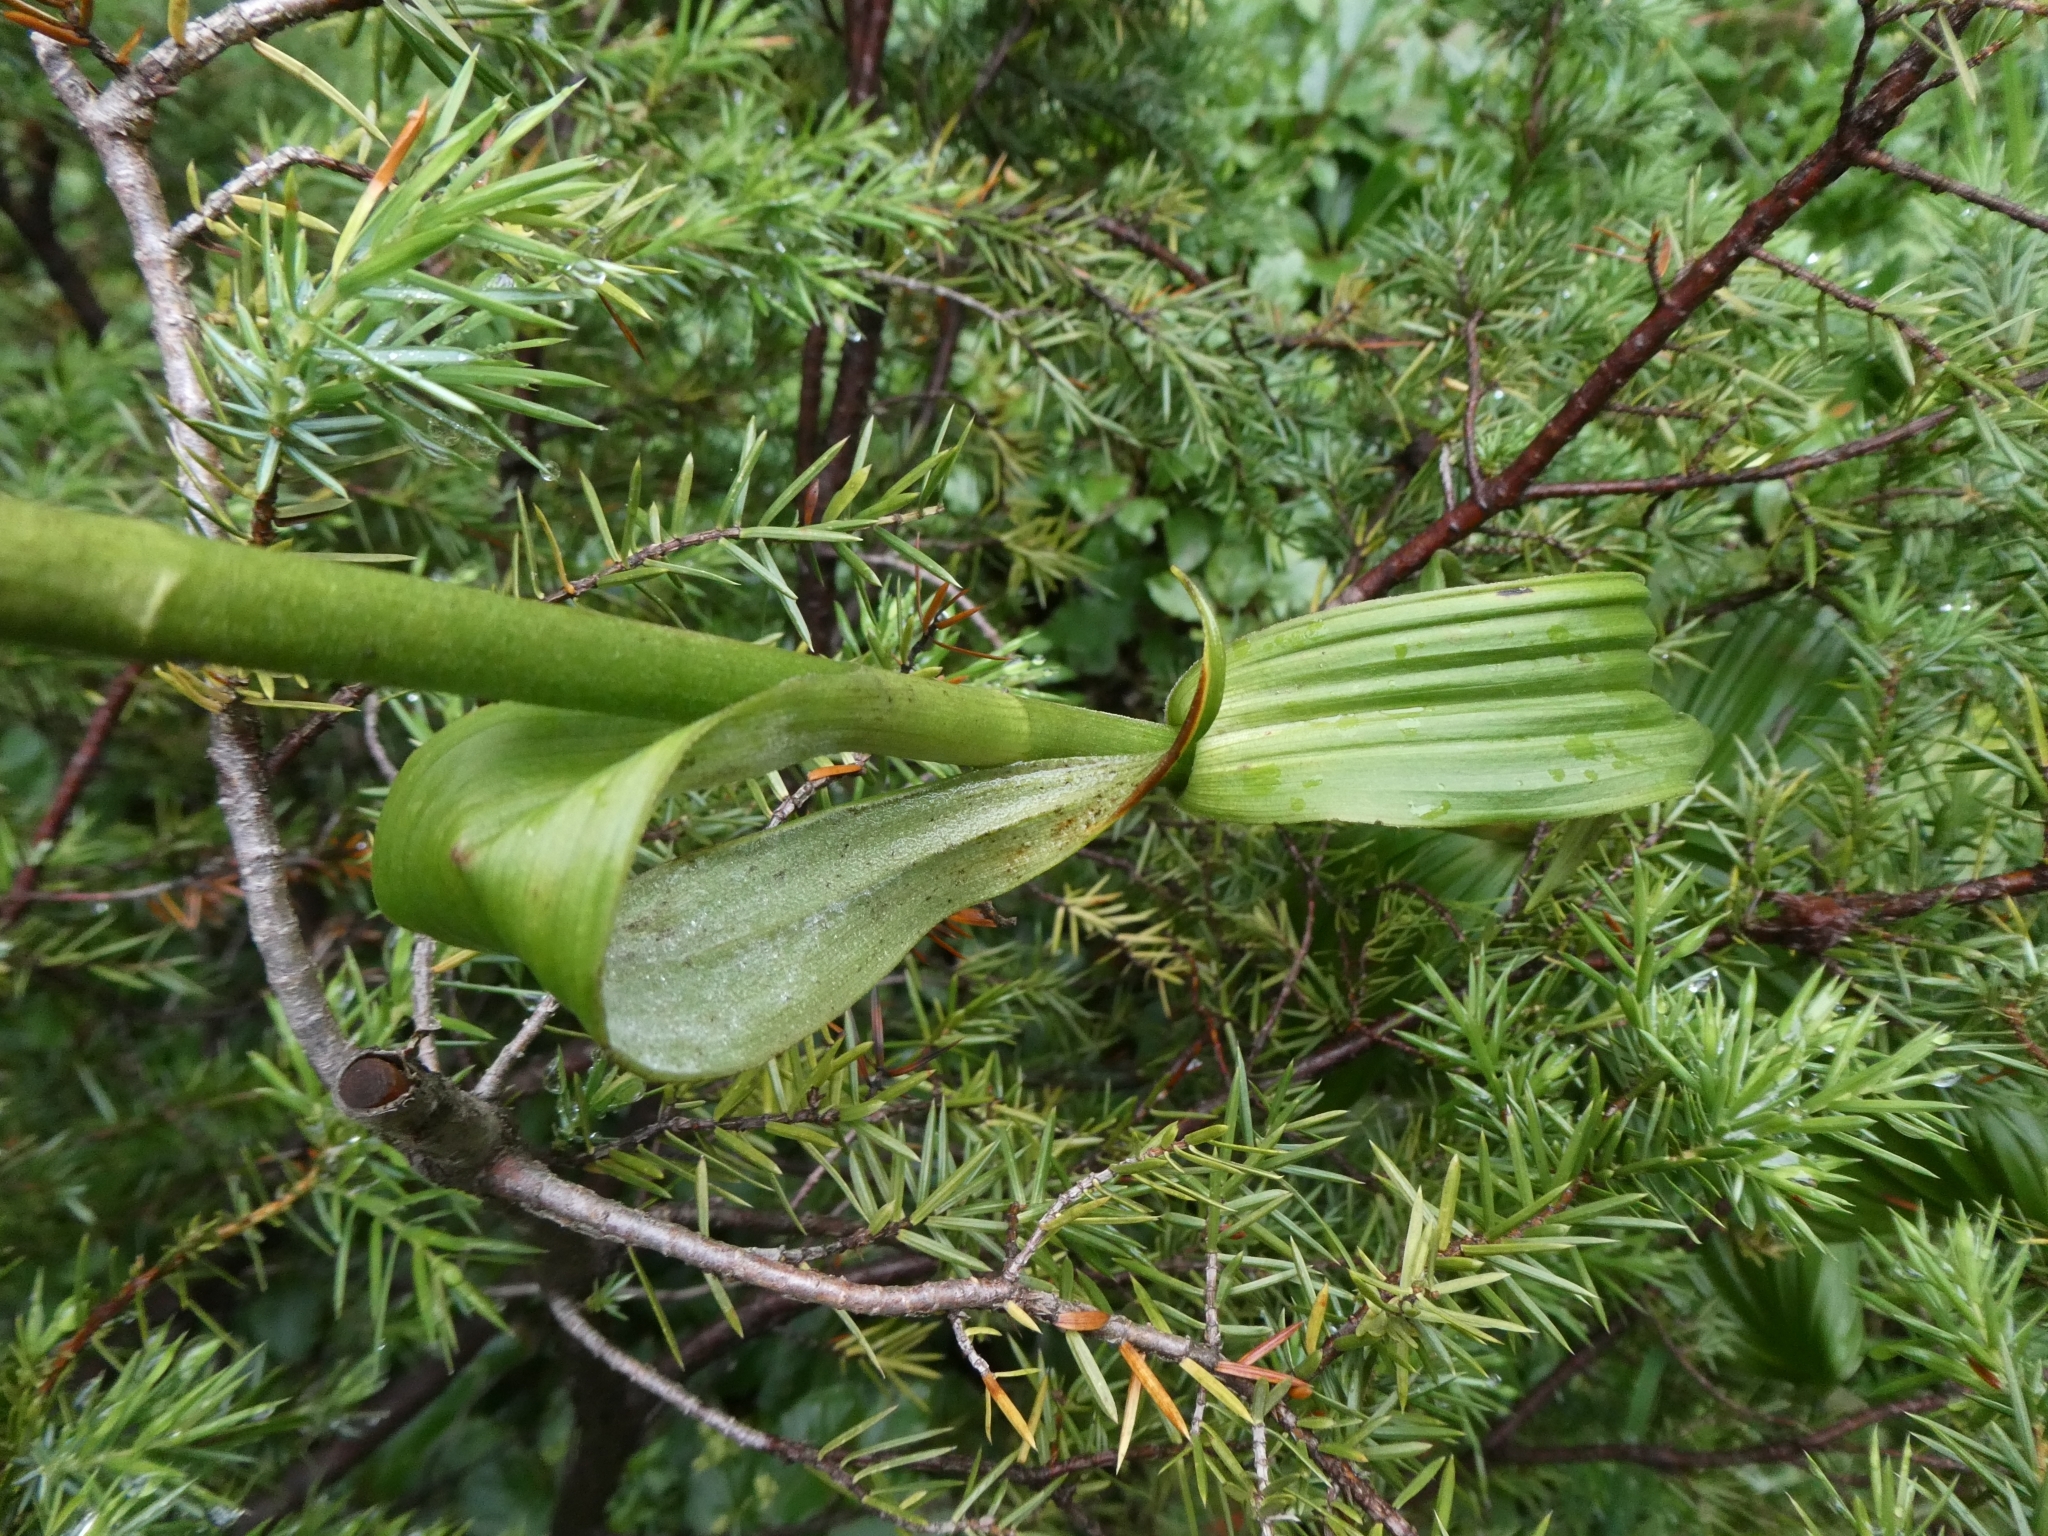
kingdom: Plantae
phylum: Tracheophyta
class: Liliopsida
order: Liliales
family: Melanthiaceae
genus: Veratrum
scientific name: Veratrum album
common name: White veratrum
